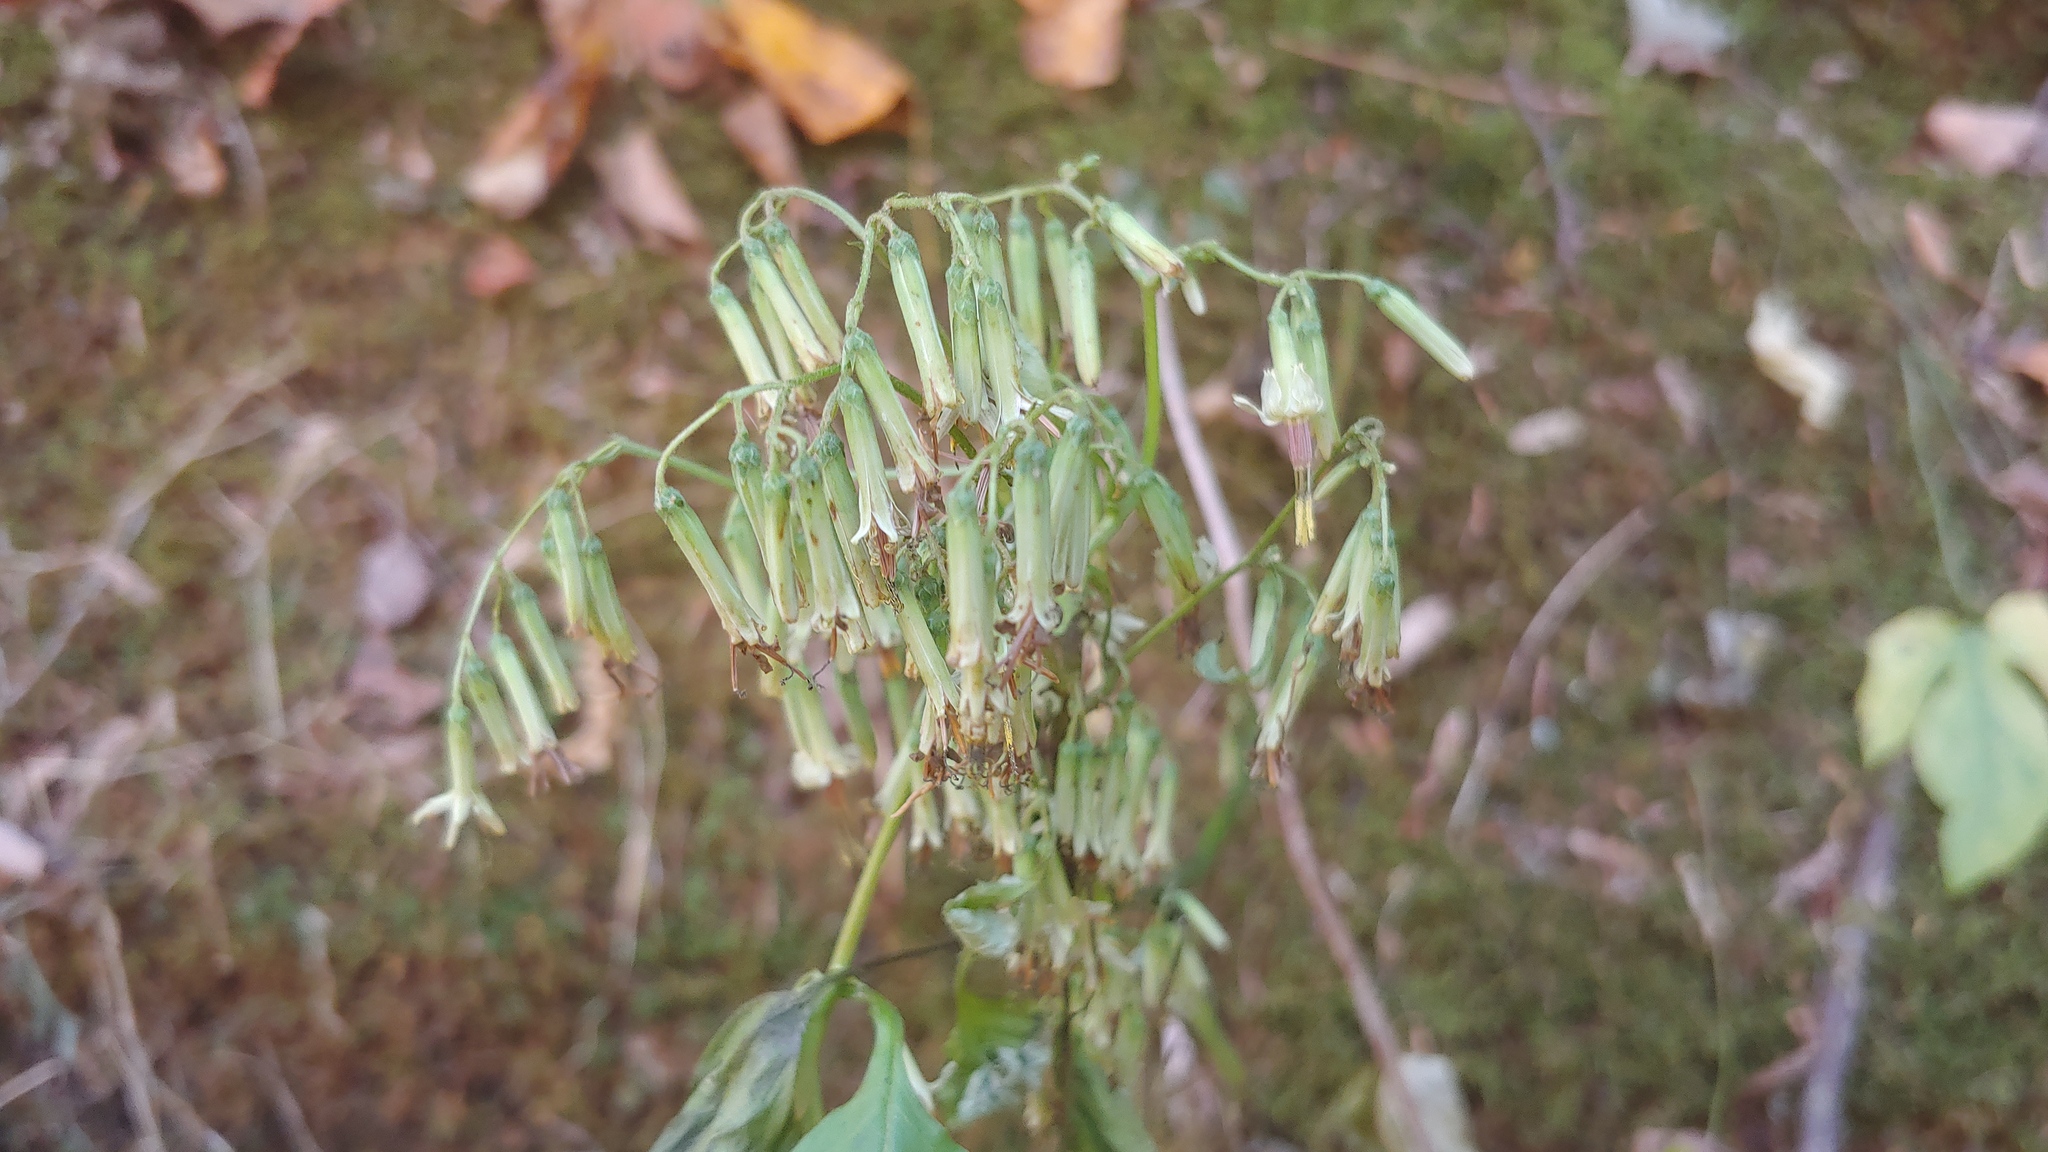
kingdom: Plantae
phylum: Tracheophyta
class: Magnoliopsida
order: Asterales
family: Asteraceae
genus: Nabalus
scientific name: Nabalus altissima
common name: Tall rattlesnakeroot
